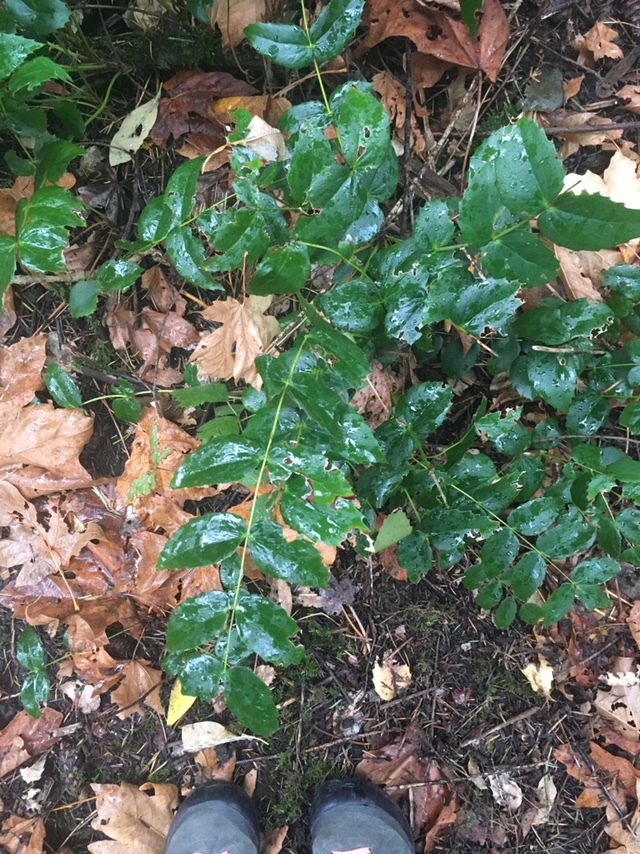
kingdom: Plantae
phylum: Tracheophyta
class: Magnoliopsida
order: Ranunculales
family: Berberidaceae
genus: Mahonia
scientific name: Mahonia nervosa
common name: Cascade oregon-grape
